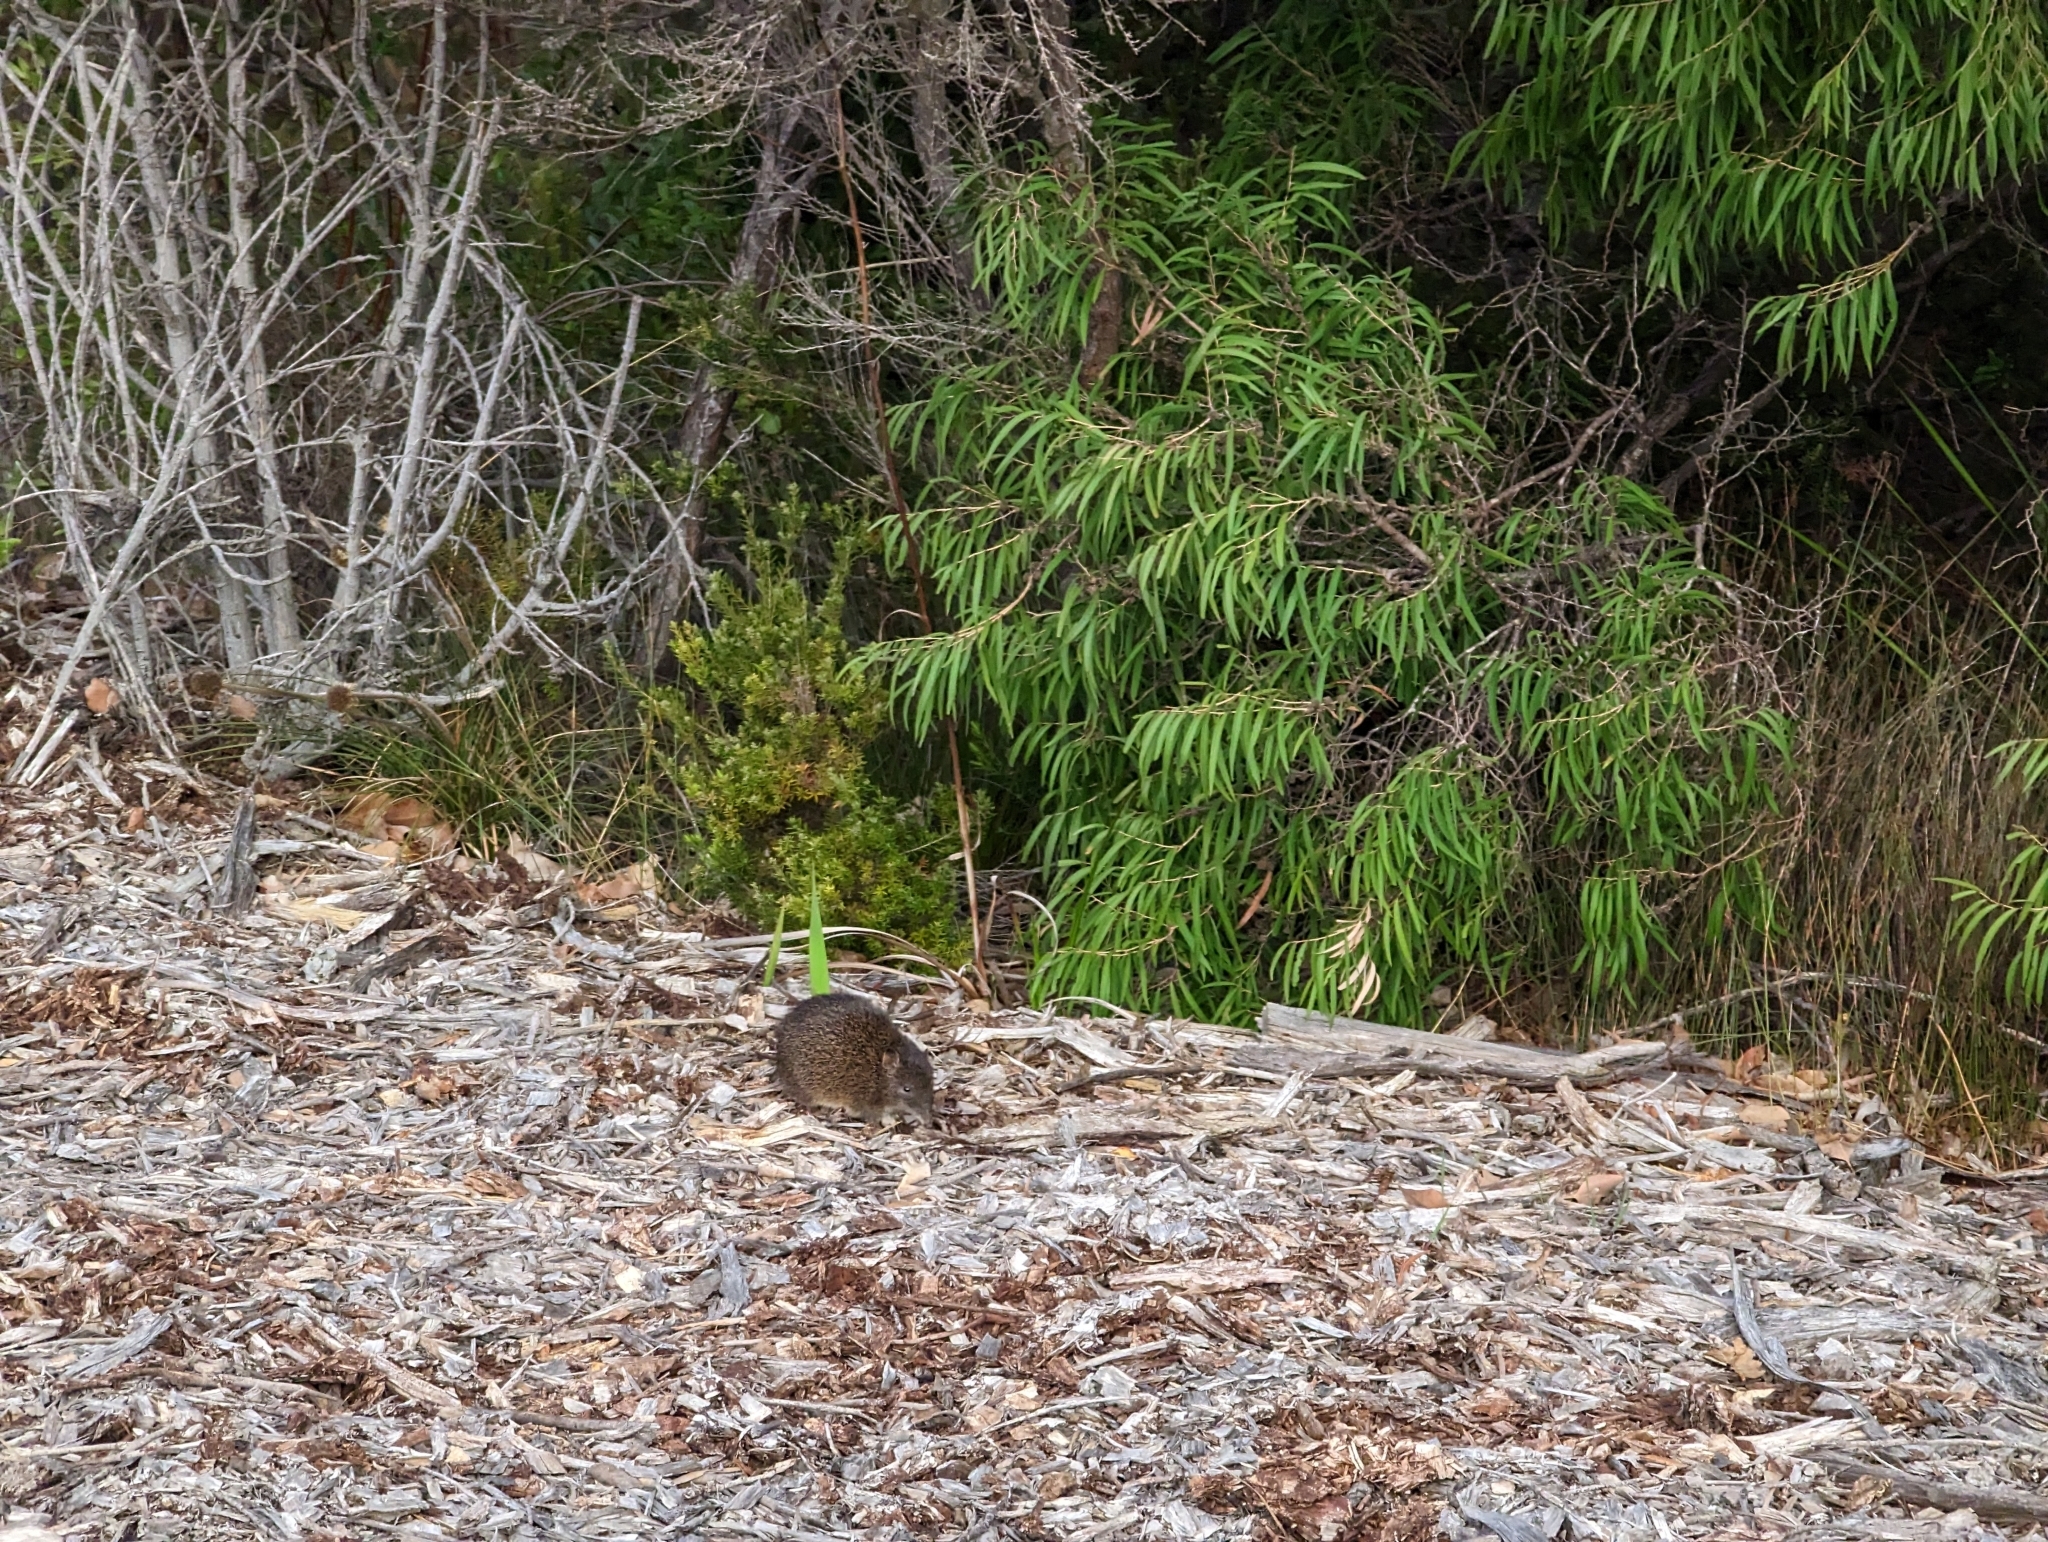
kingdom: Animalia
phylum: Chordata
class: Mammalia
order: Peramelemorphia
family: Peramelidae
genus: Isoodon
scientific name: Isoodon fusciventer
